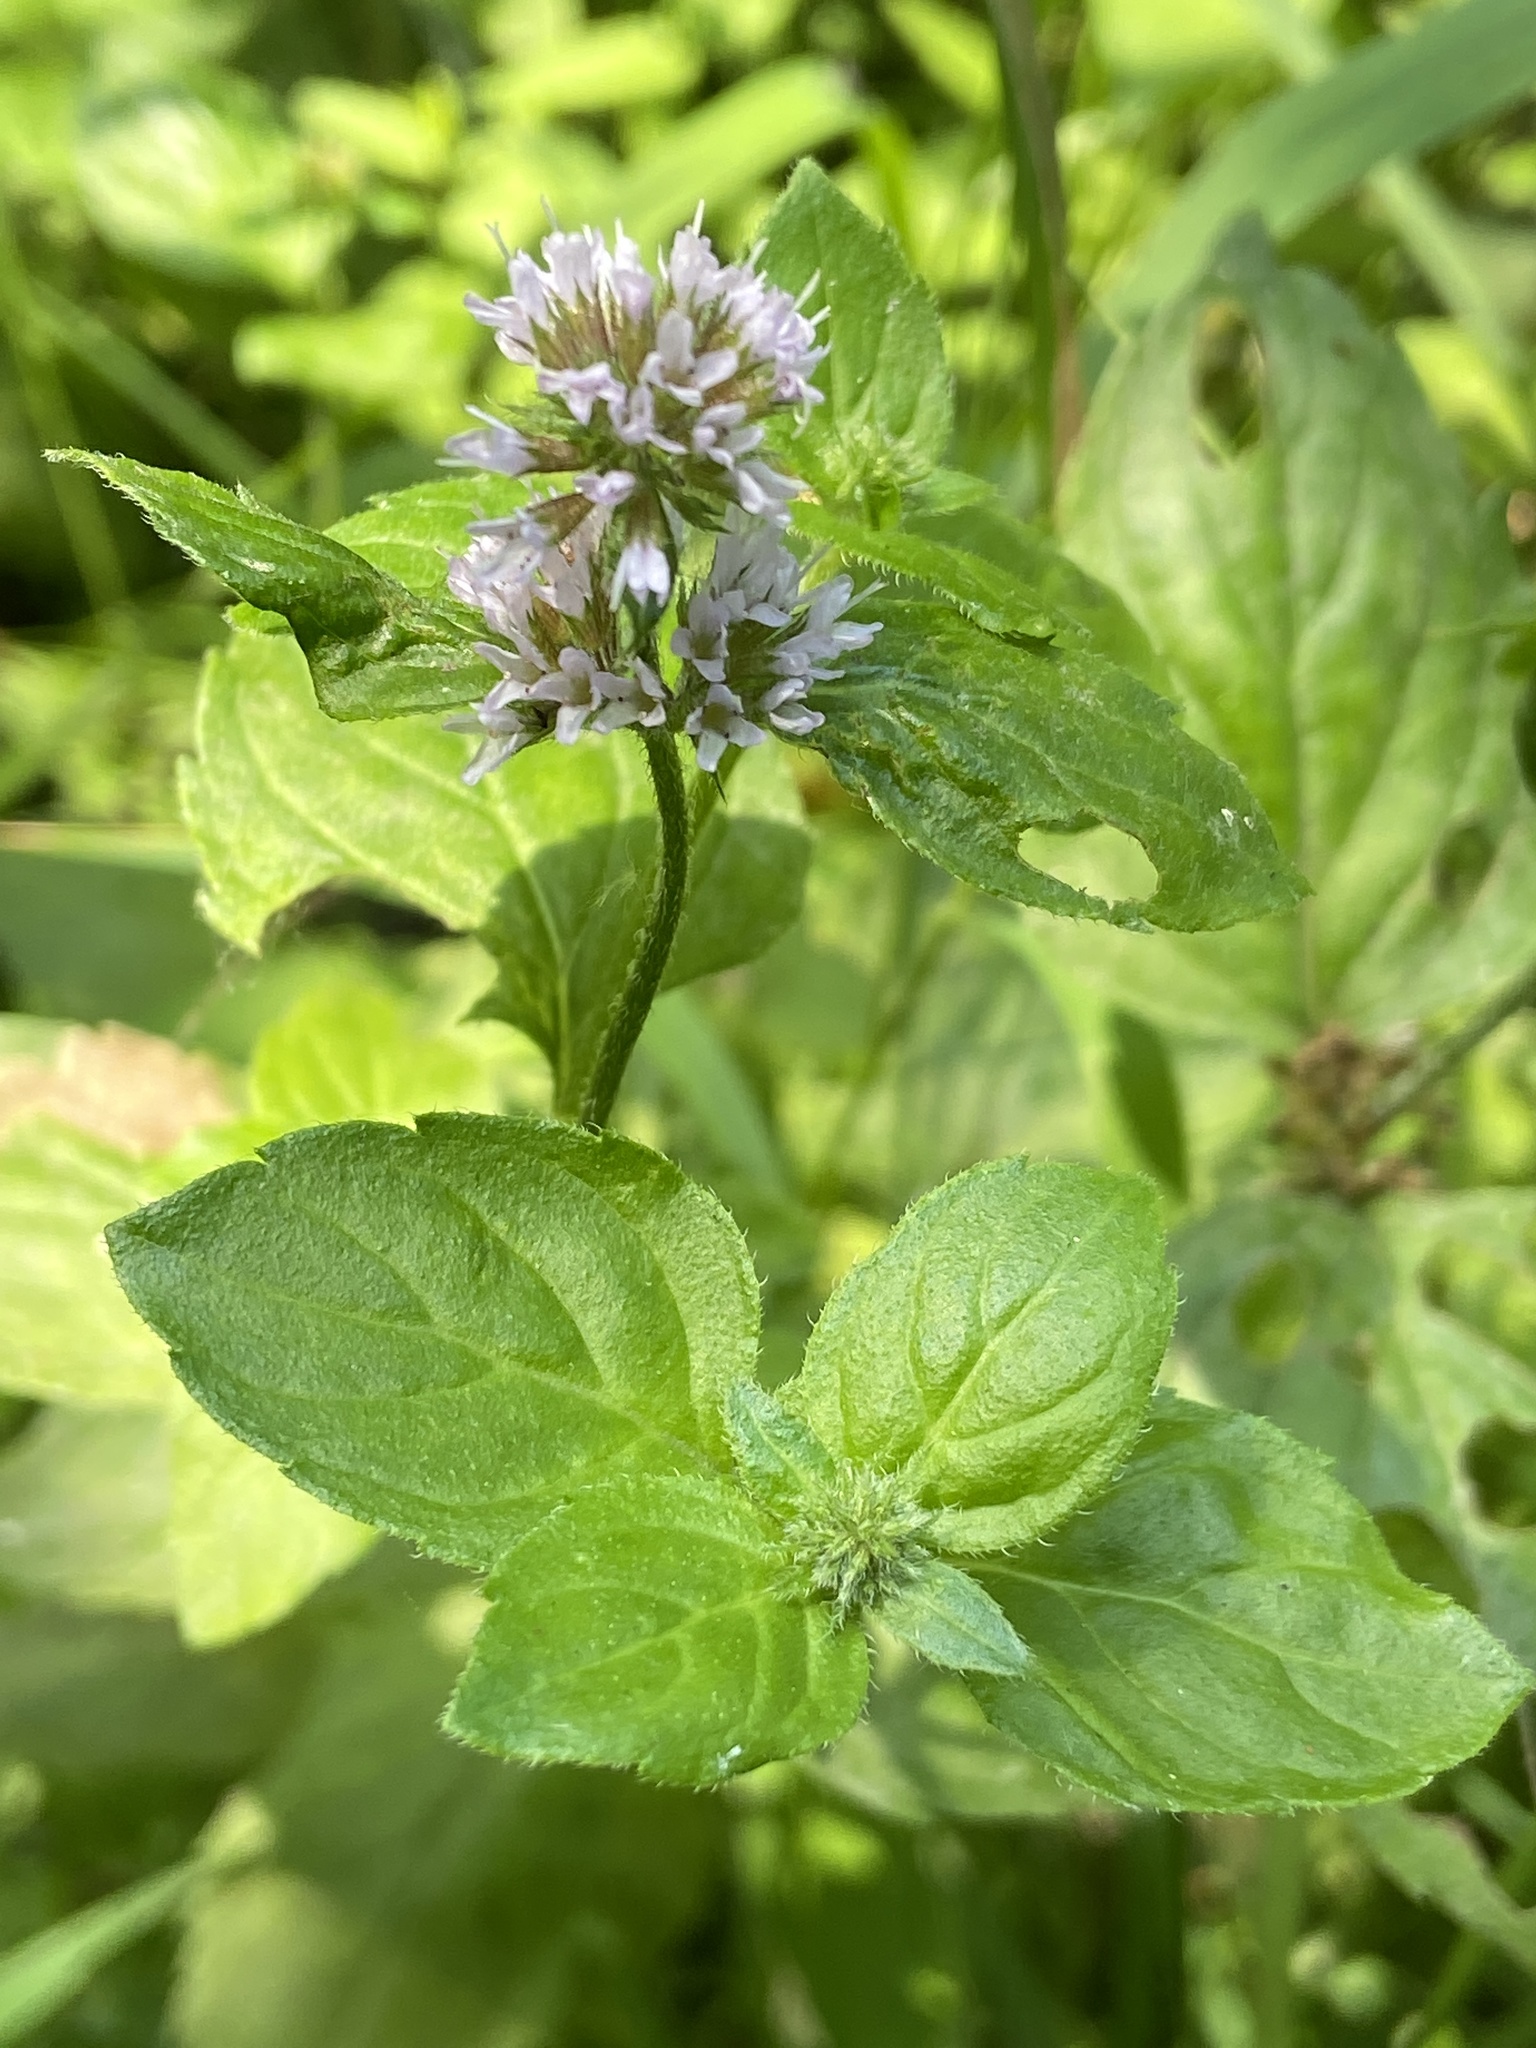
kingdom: Plantae
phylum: Tracheophyta
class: Magnoliopsida
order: Lamiales
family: Lamiaceae
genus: Mentha
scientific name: Mentha aquatica
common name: Water mint
